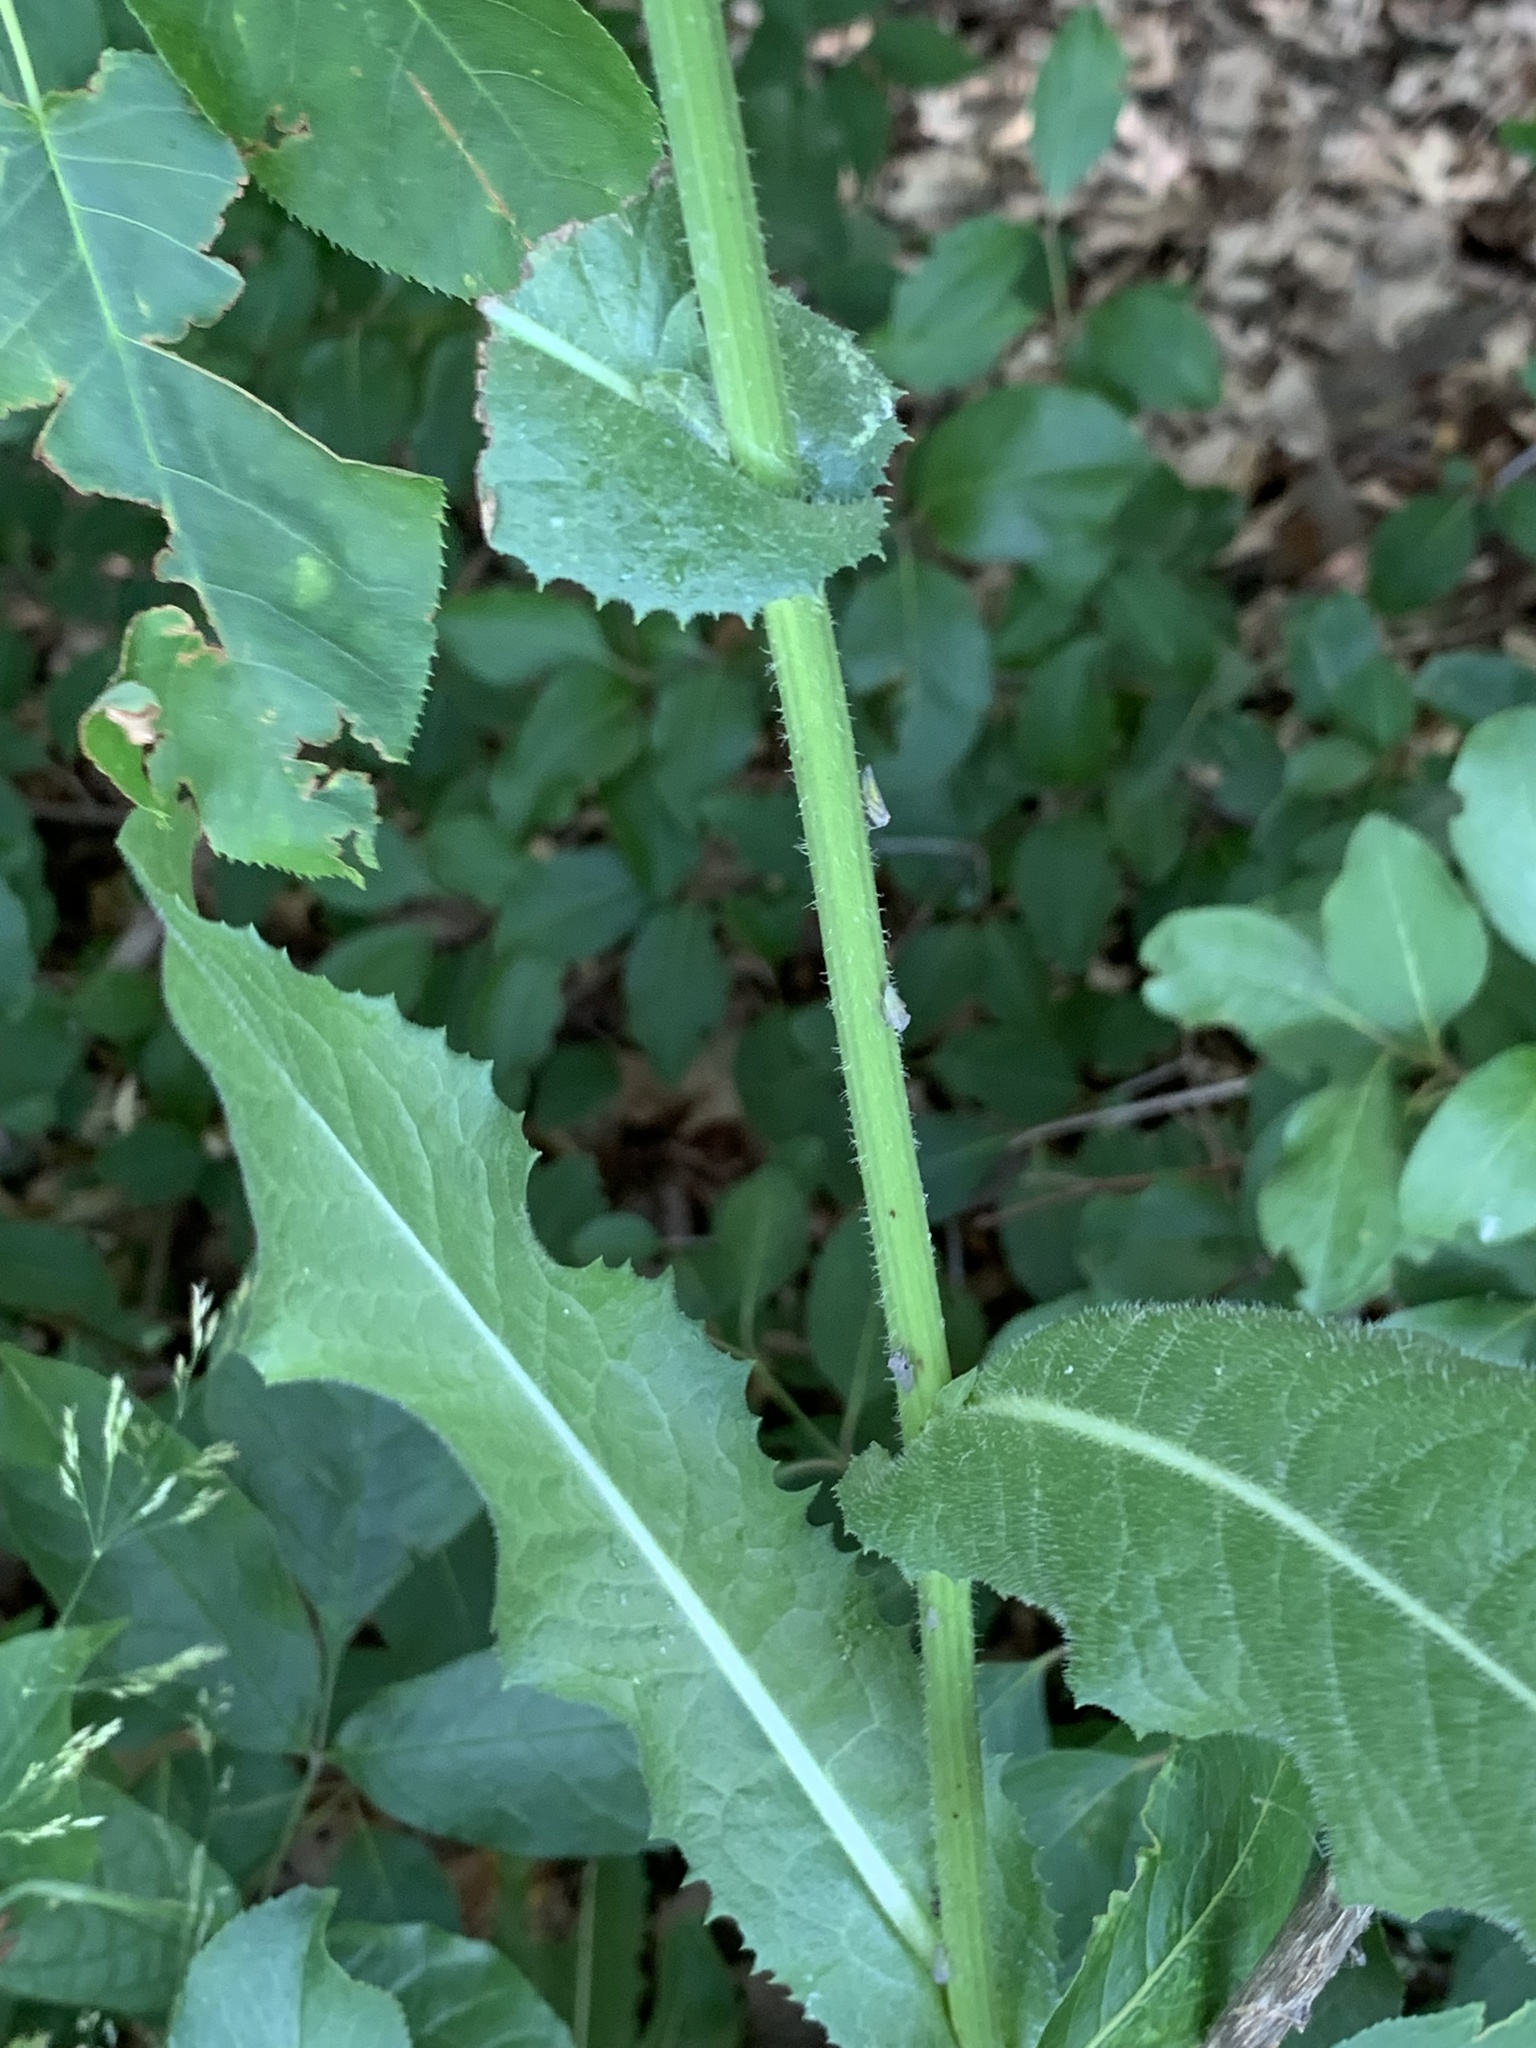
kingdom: Plantae
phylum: Tracheophyta
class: Magnoliopsida
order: Asterales
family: Asteraceae
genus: Cichorium
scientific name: Cichorium intybus
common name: Chicory
